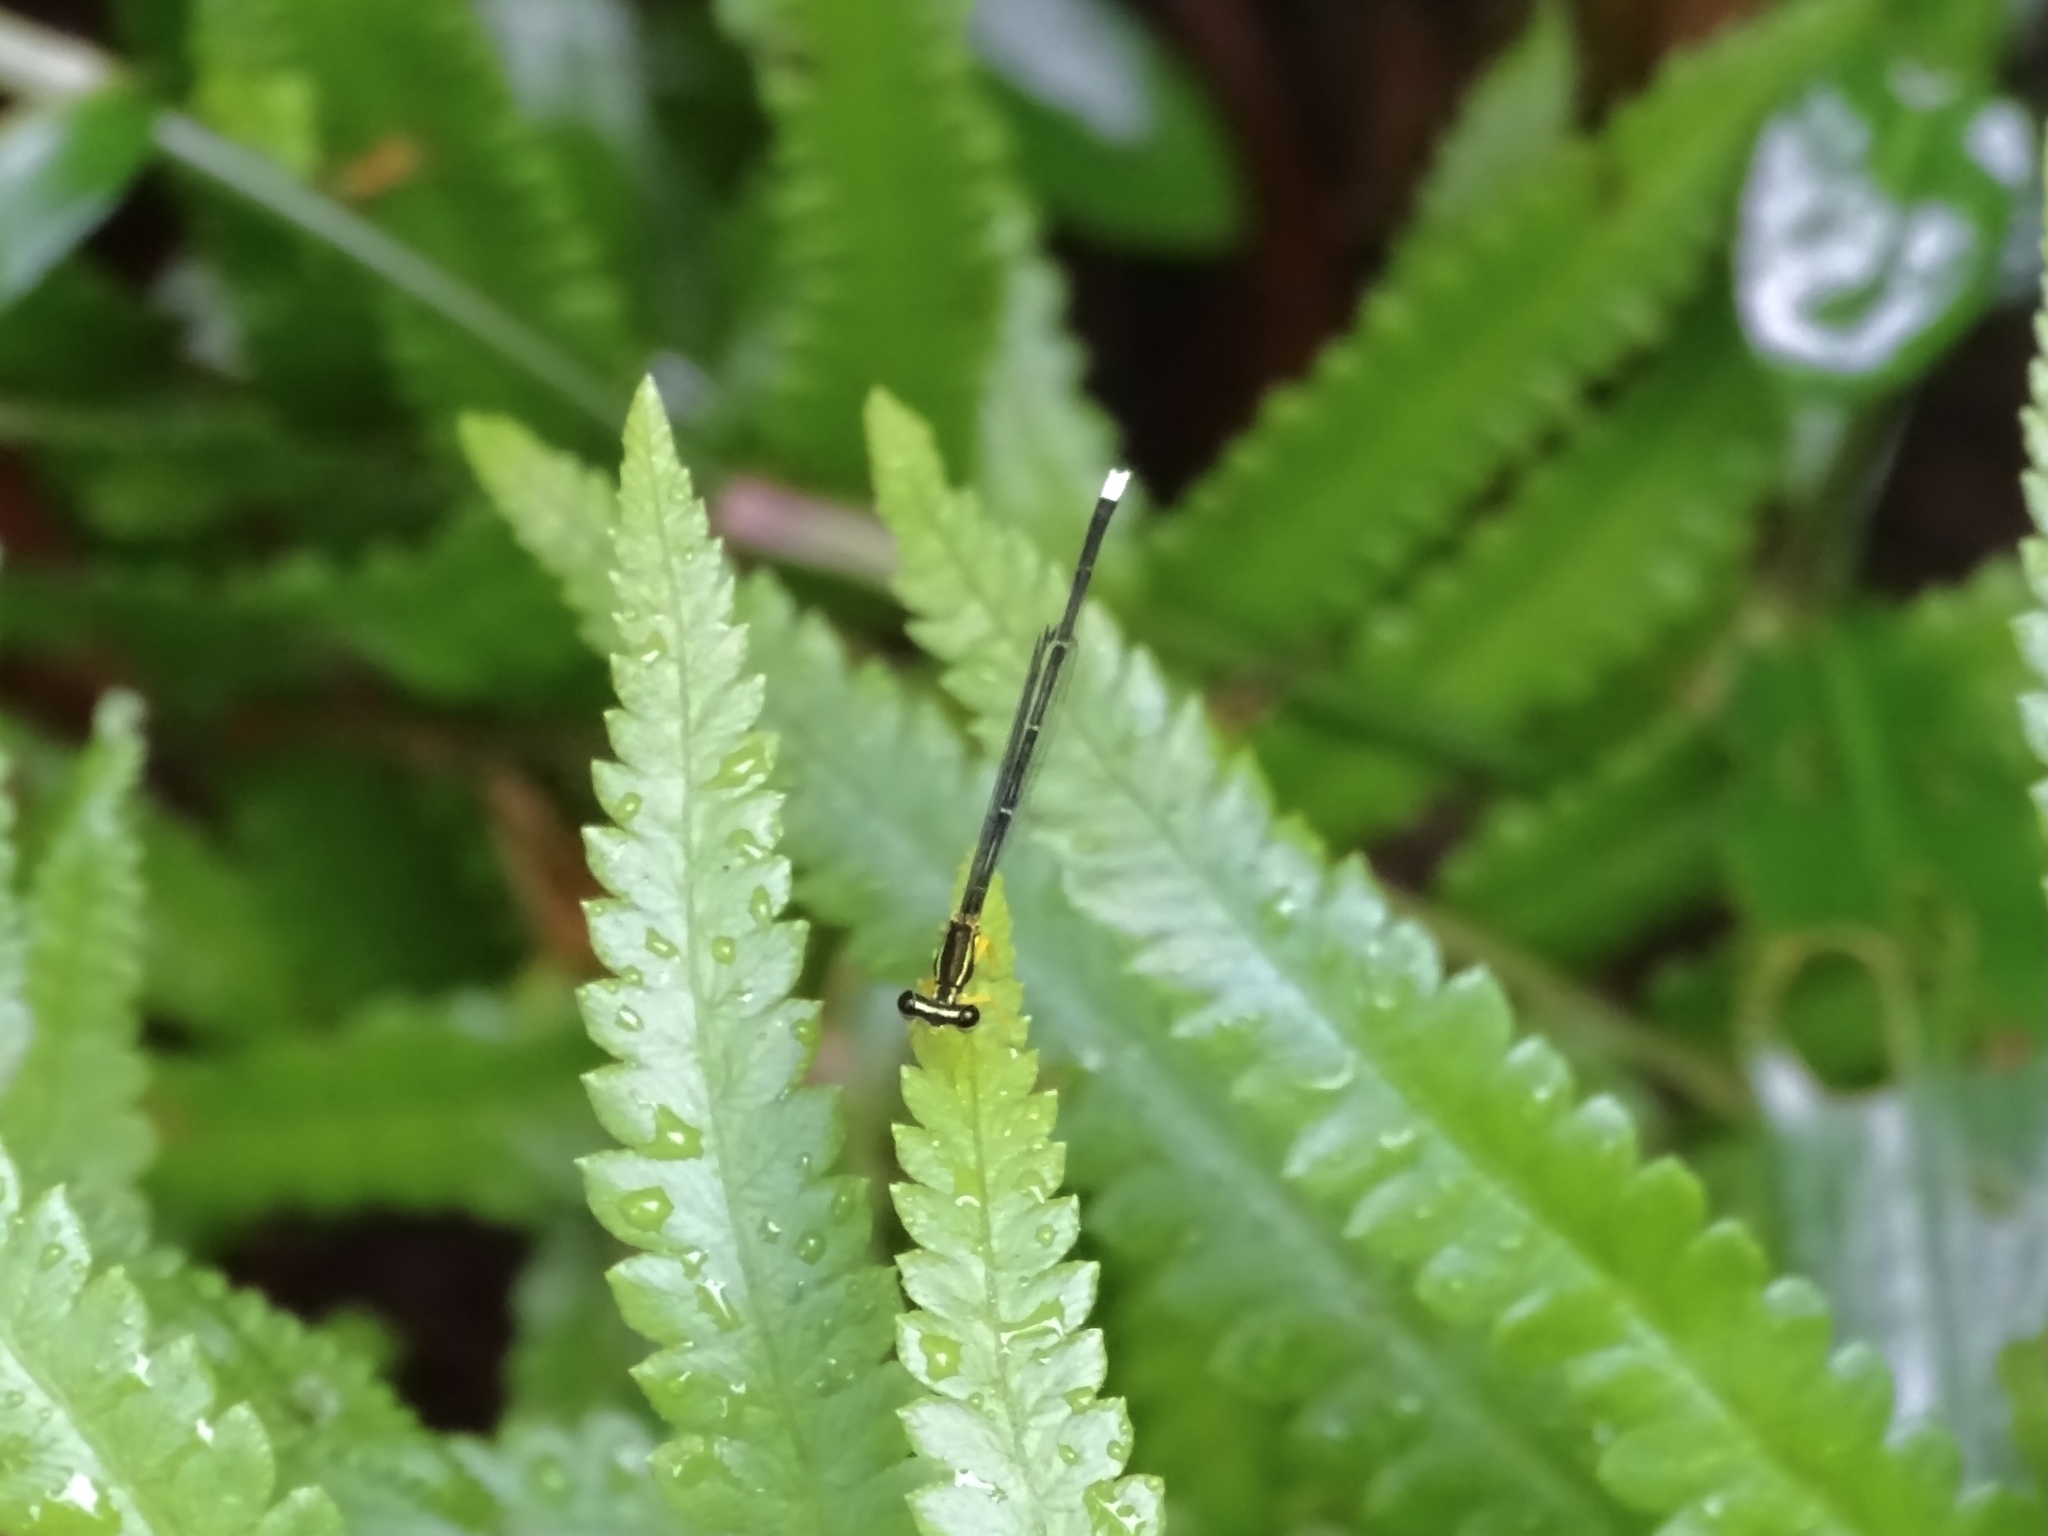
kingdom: Animalia
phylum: Arthropoda
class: Insecta
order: Odonata
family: Platycnemididae
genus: Copera
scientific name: Copera marginipes
